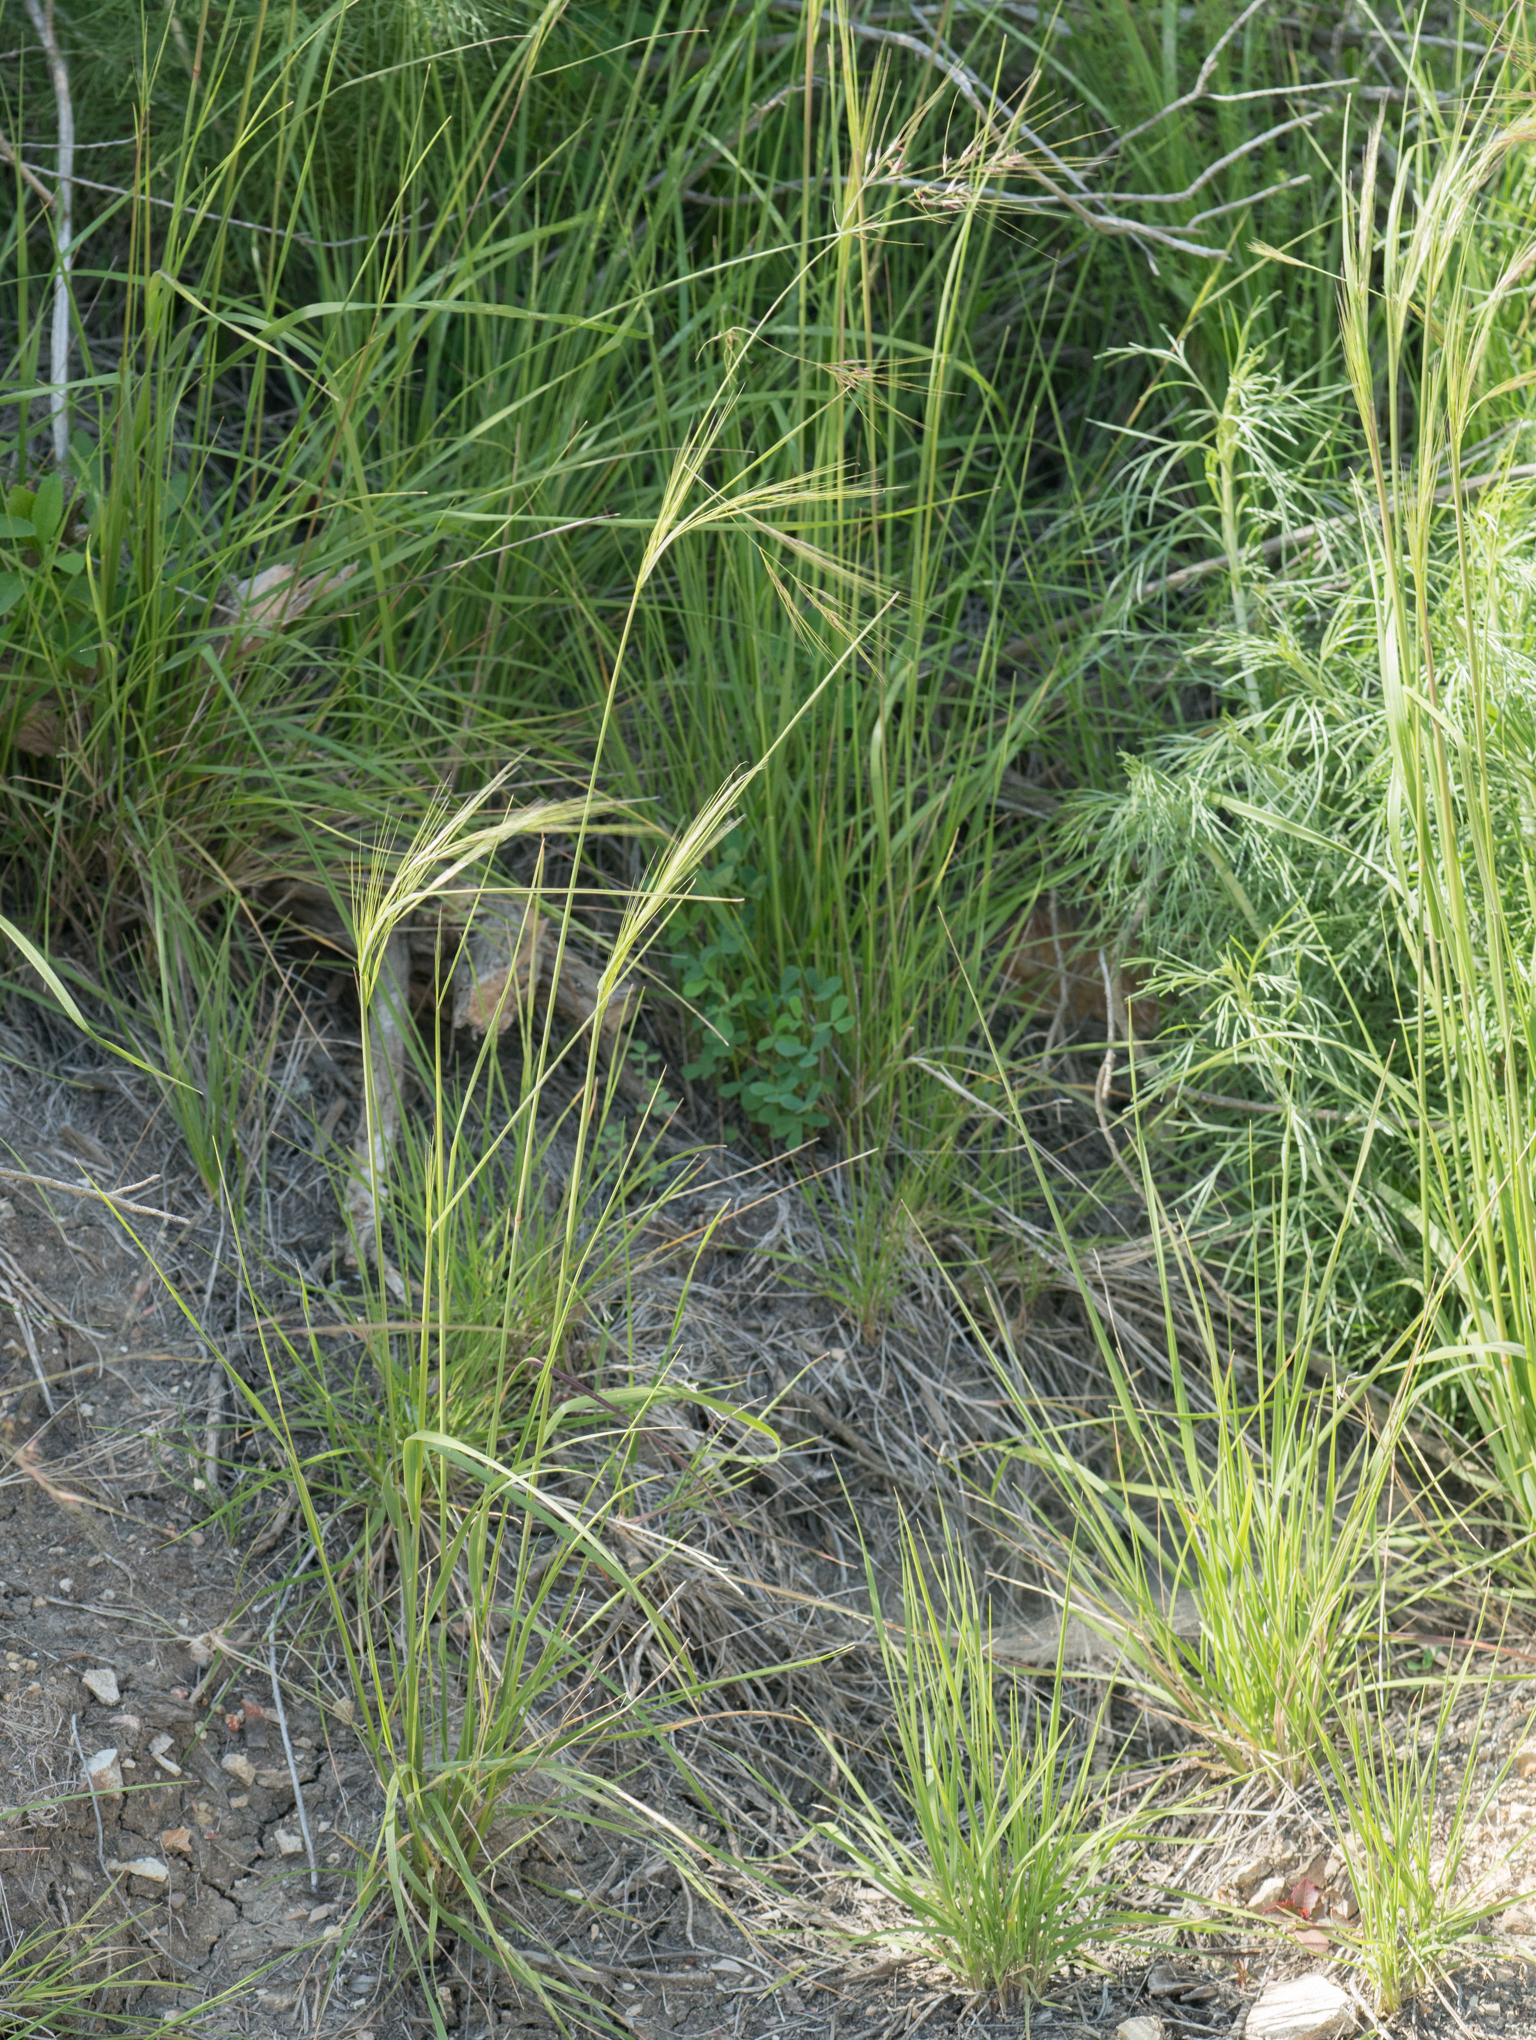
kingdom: Plantae
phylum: Tracheophyta
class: Liliopsida
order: Poales
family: Poaceae
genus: Nassella
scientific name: Nassella pulchra
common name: Purple needlegrass
